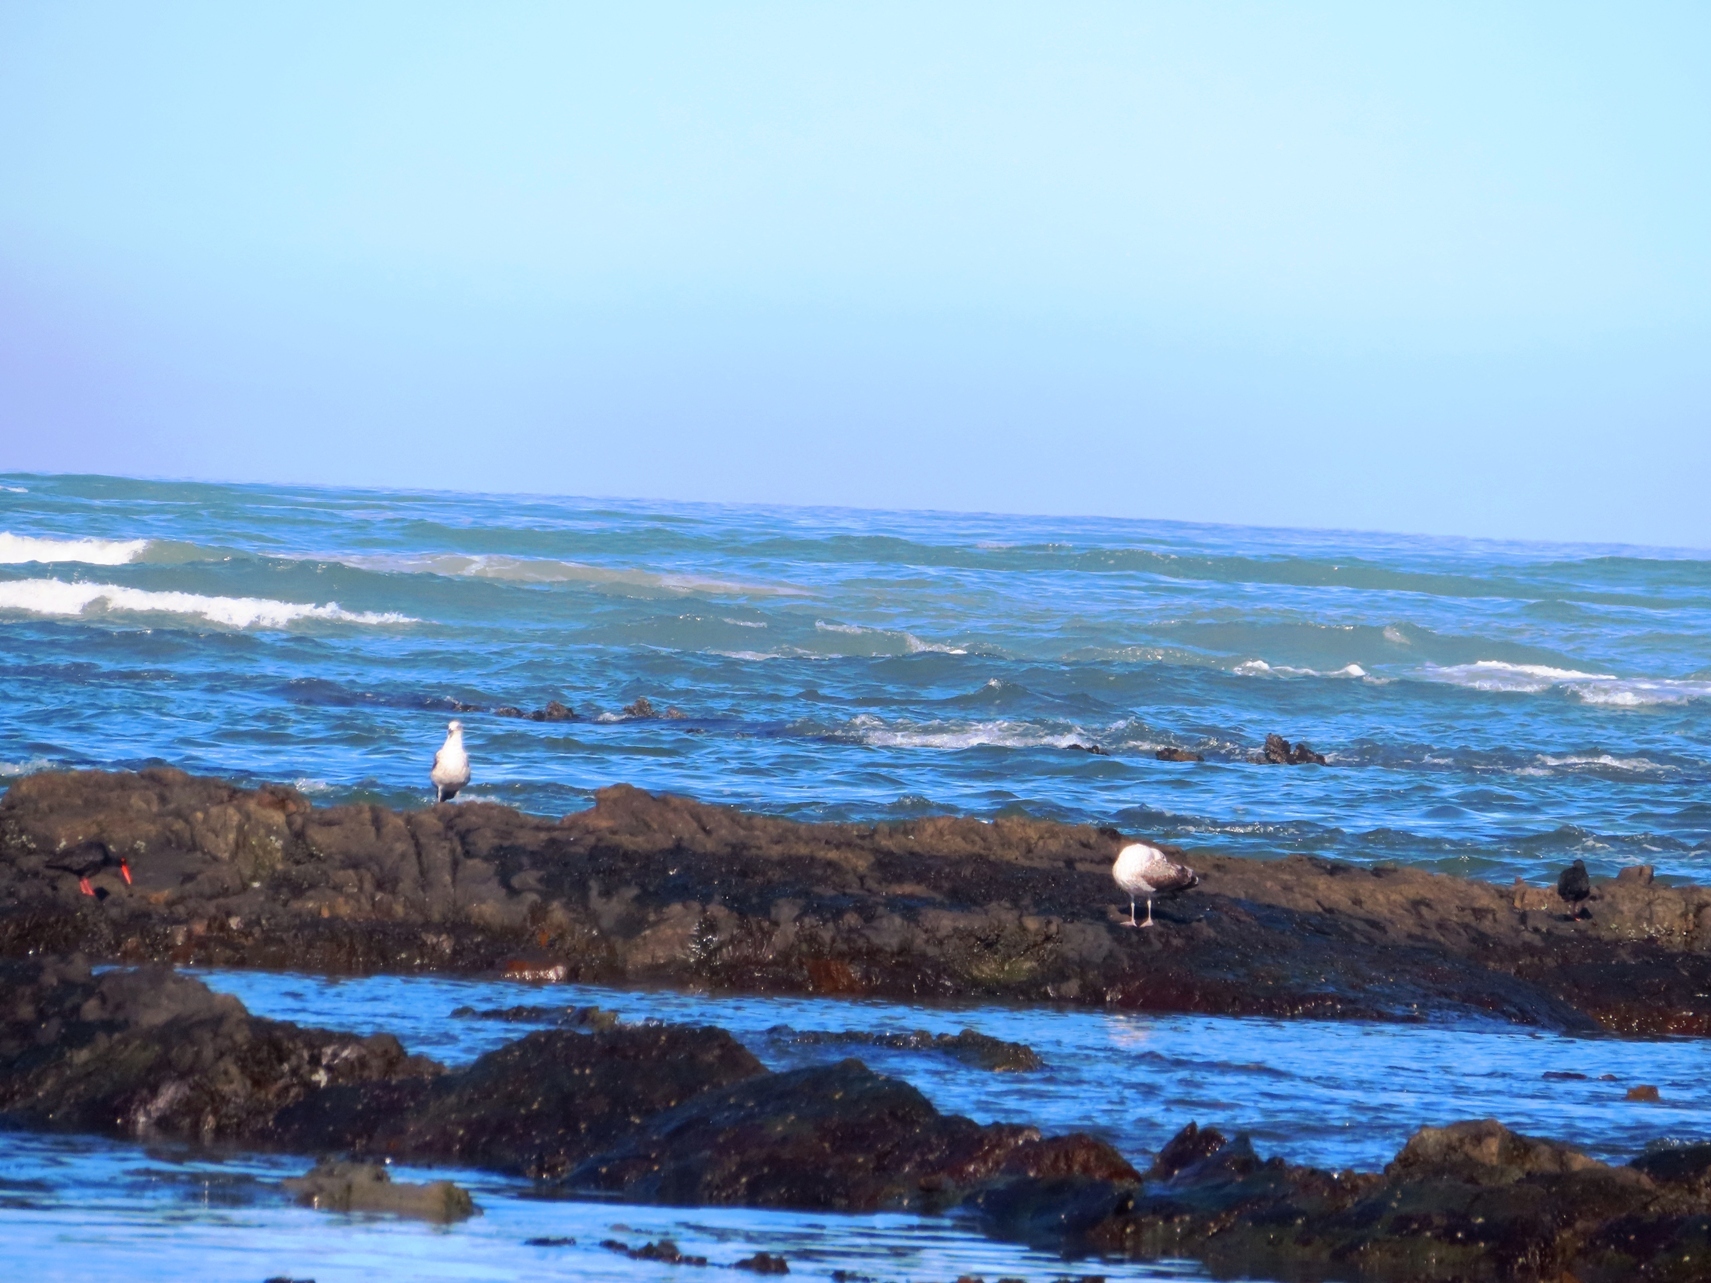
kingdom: Animalia
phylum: Chordata
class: Aves
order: Charadriiformes
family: Laridae
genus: Larus
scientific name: Larus dominicanus
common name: Kelp gull
